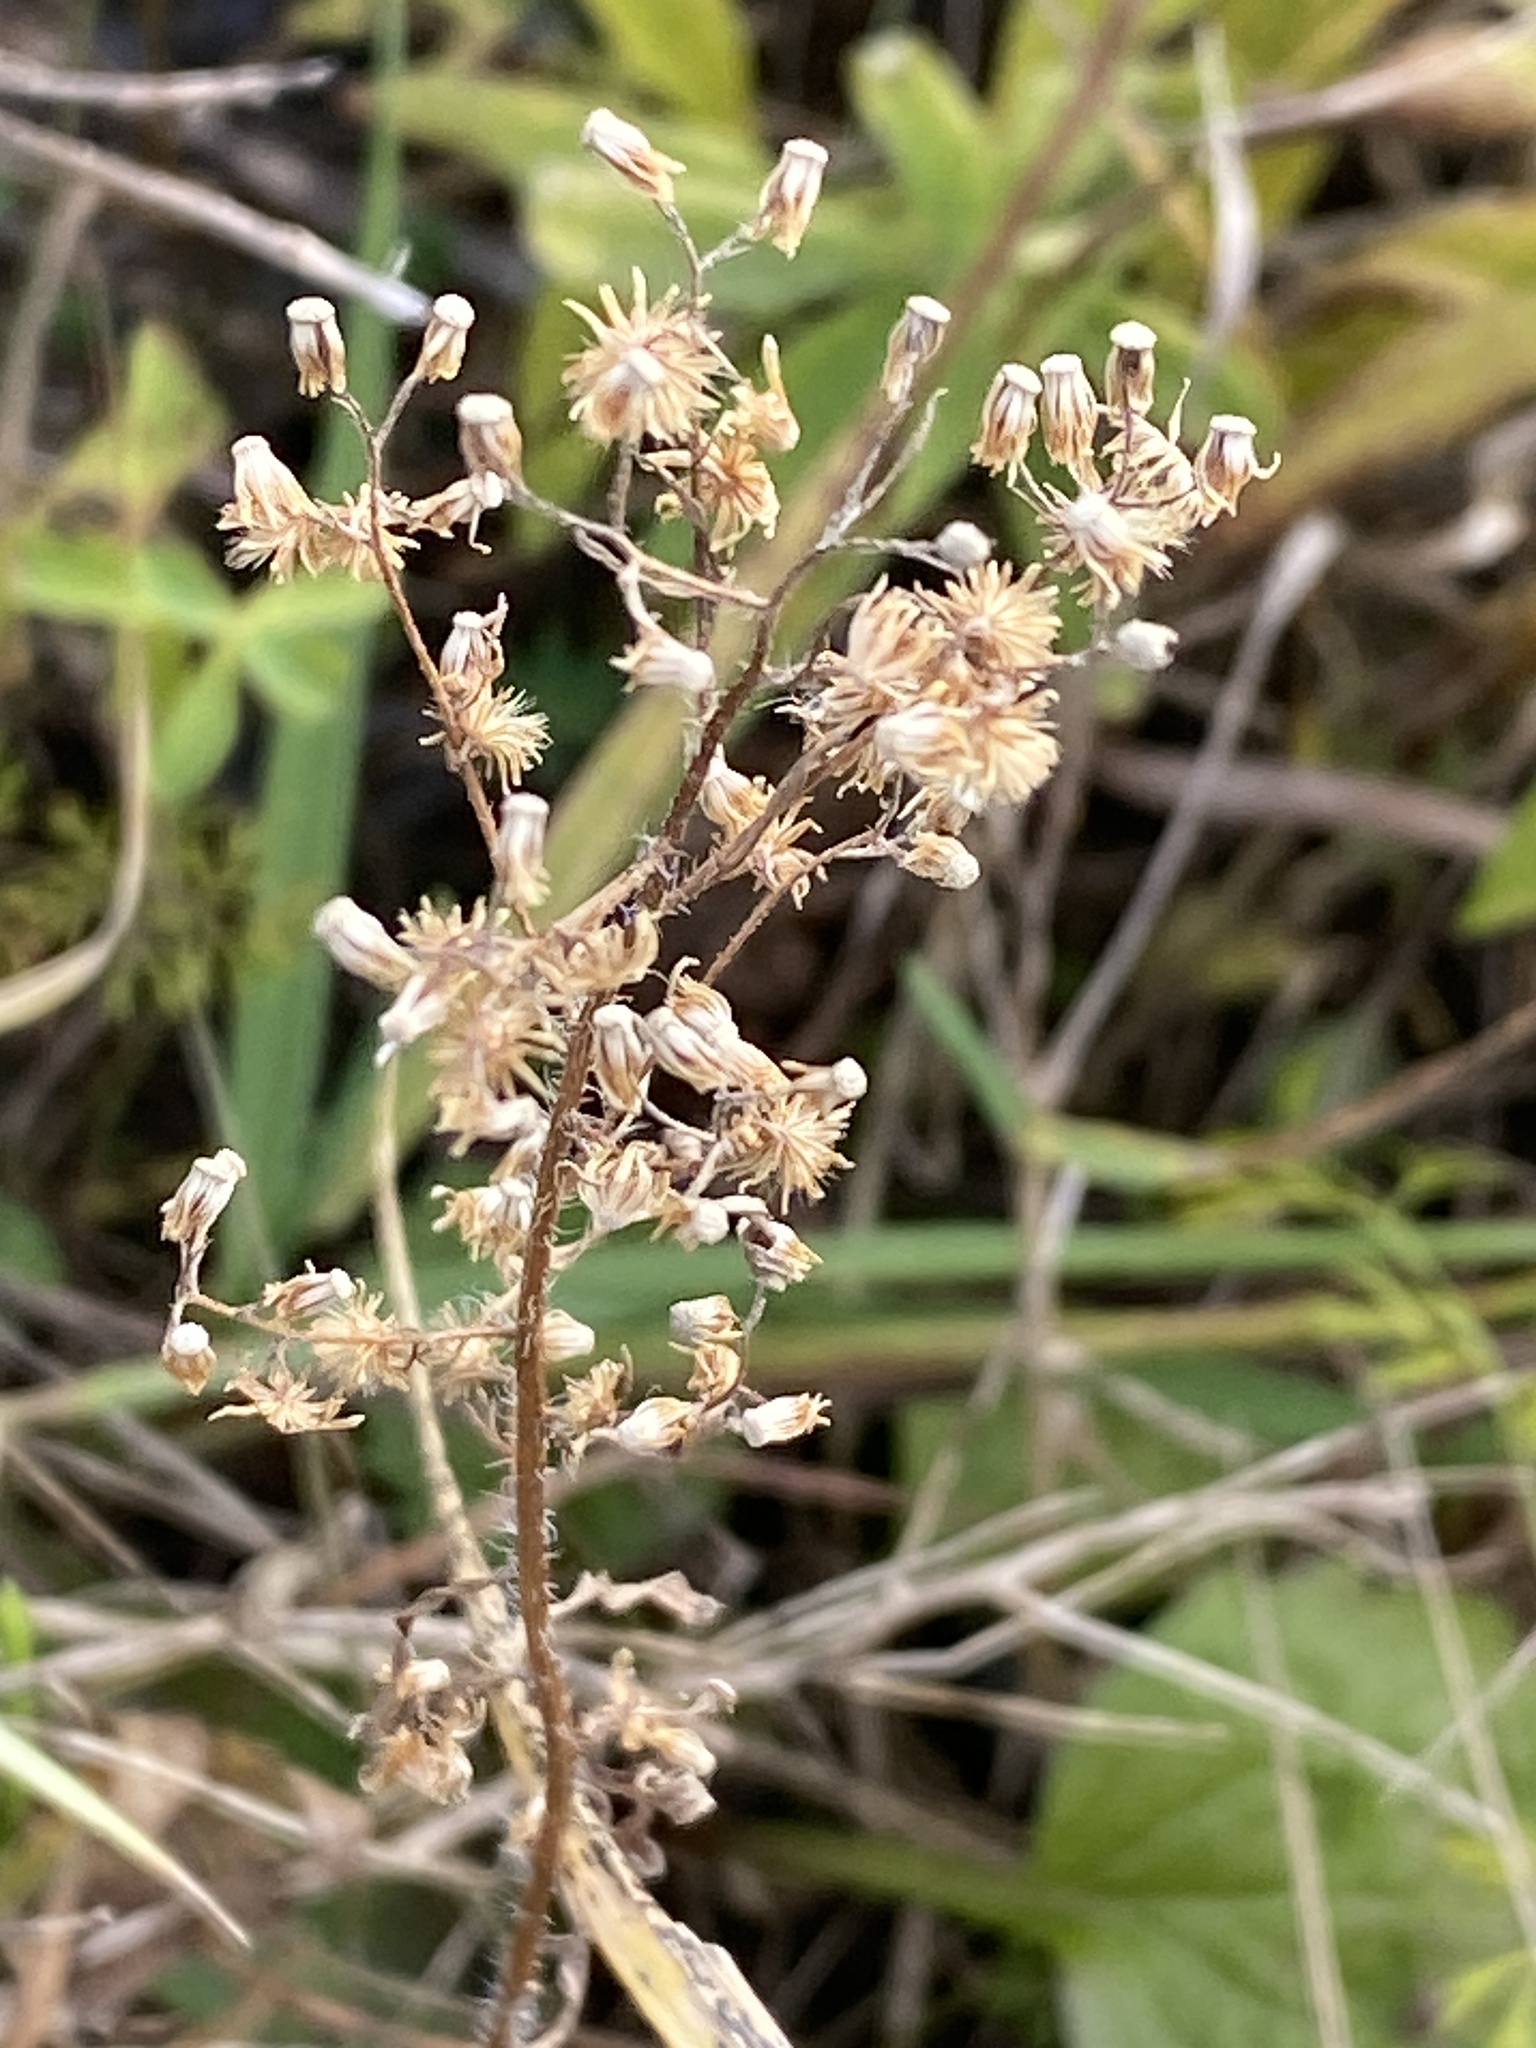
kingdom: Plantae
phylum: Tracheophyta
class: Magnoliopsida
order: Asterales
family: Asteraceae
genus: Erigeron
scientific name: Erigeron canadensis
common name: Canadian fleabane
